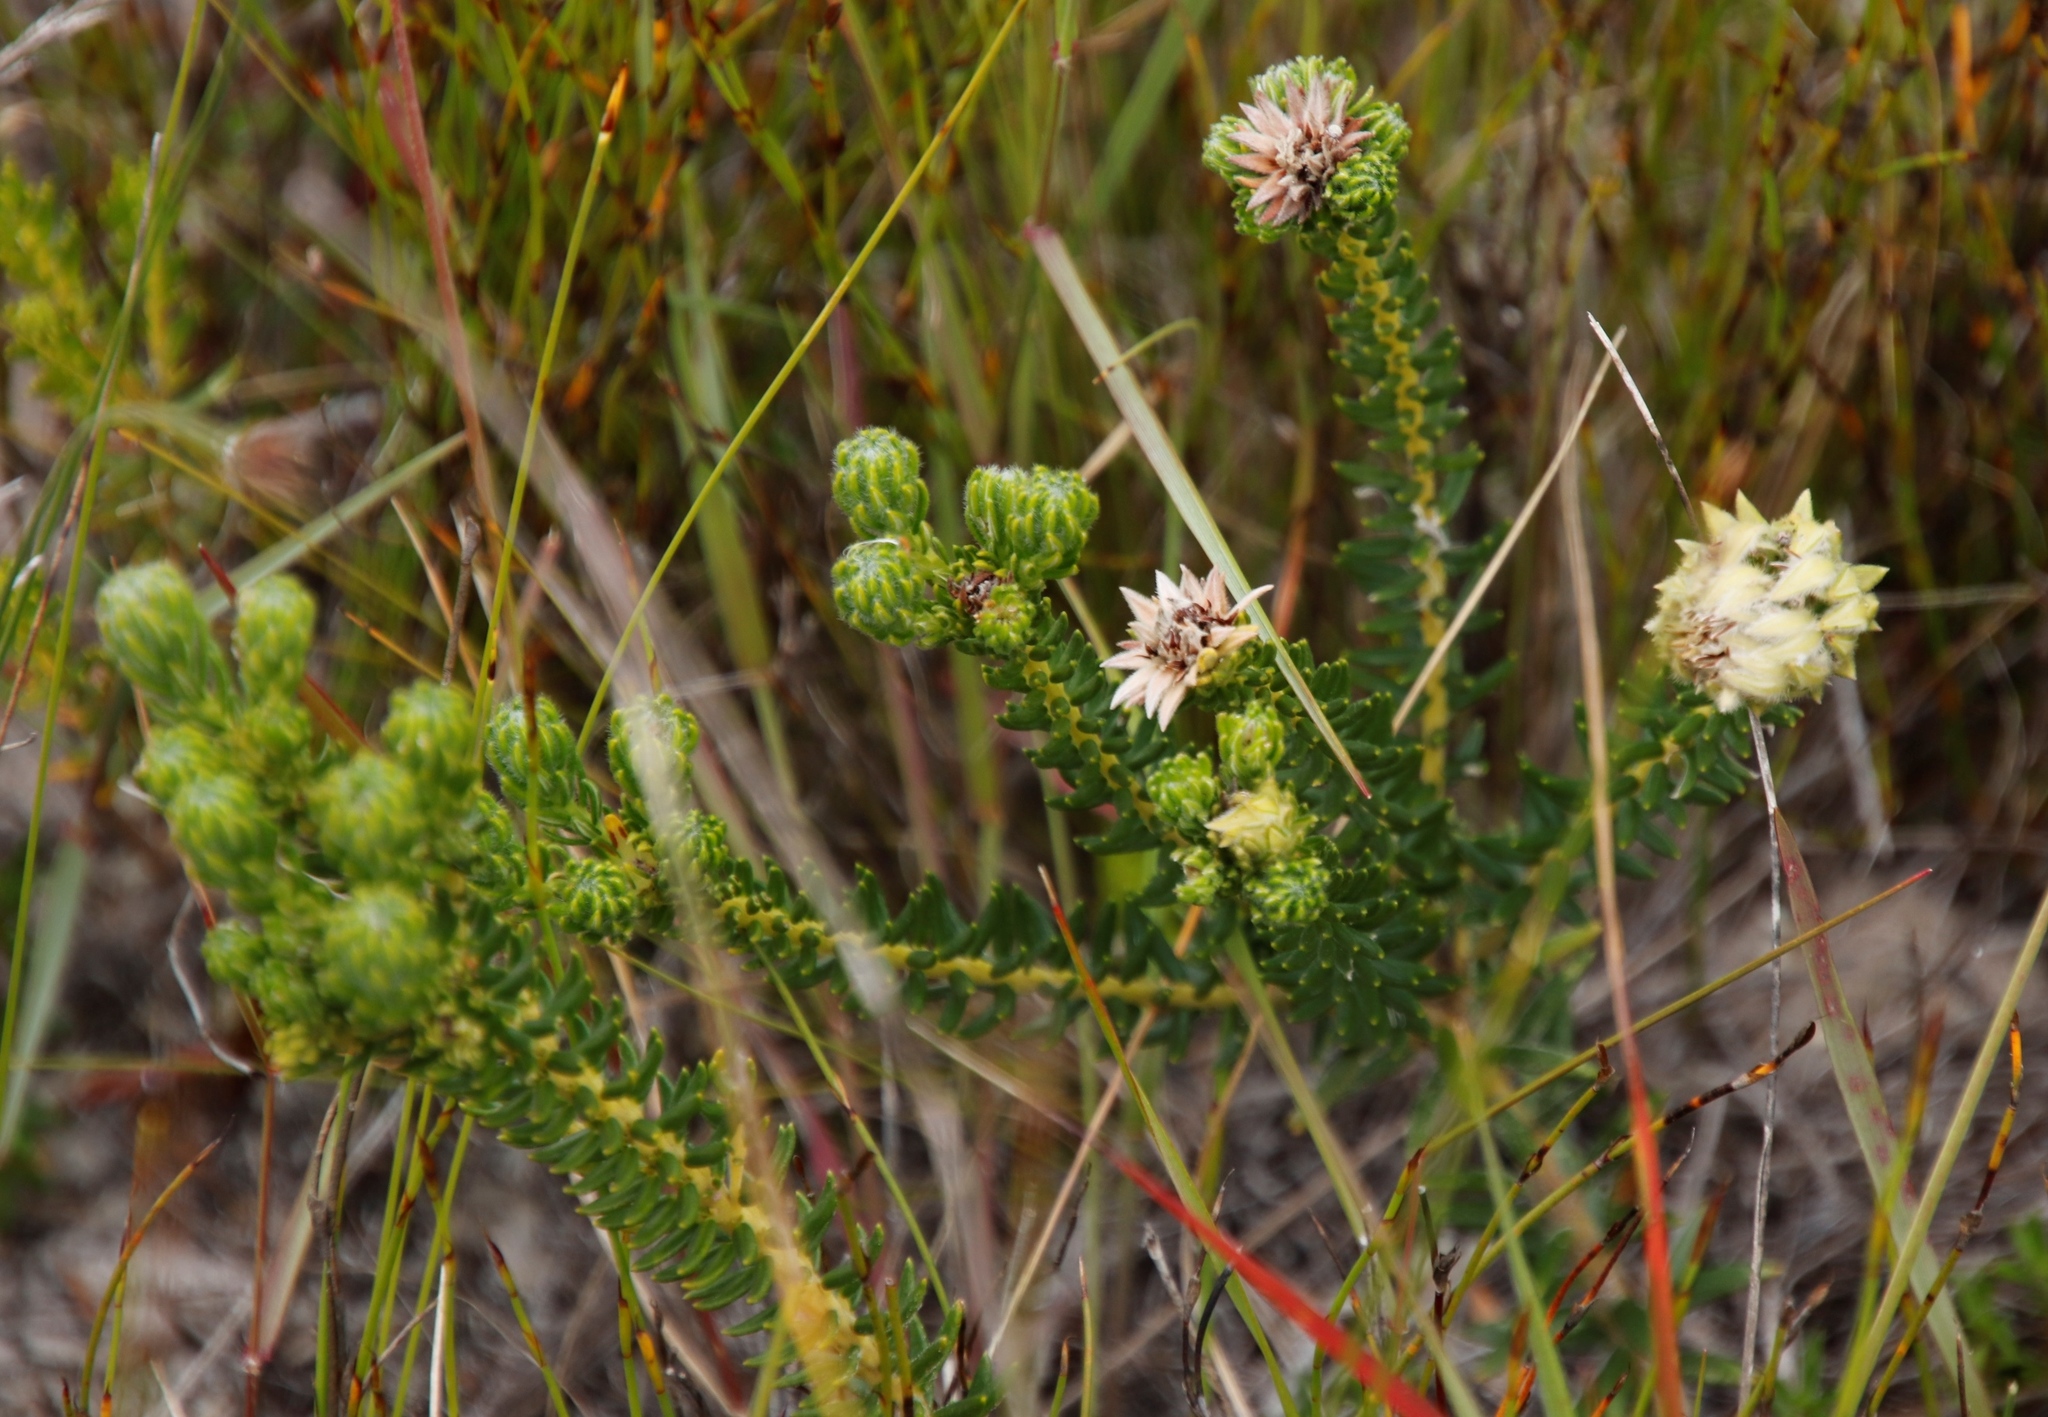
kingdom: Plantae
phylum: Tracheophyta
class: Magnoliopsida
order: Rosales
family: Rhamnaceae
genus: Phylica
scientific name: Phylica dodii
